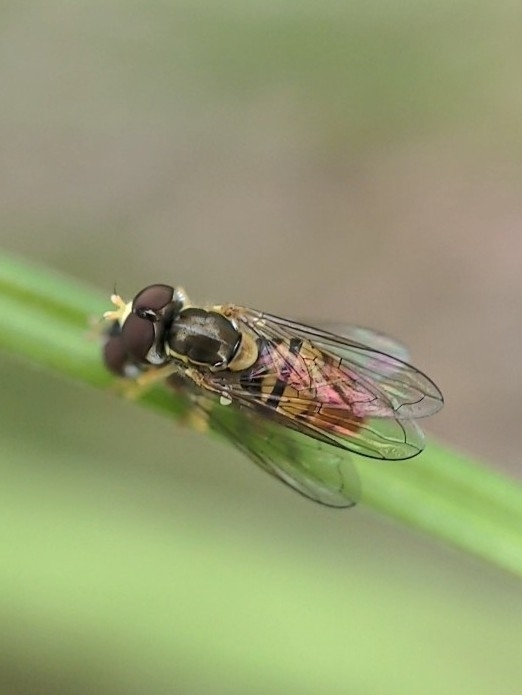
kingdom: Animalia
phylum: Arthropoda
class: Insecta
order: Diptera
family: Syrphidae
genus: Toxomerus
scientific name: Toxomerus marginatus
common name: Syrphid fly
